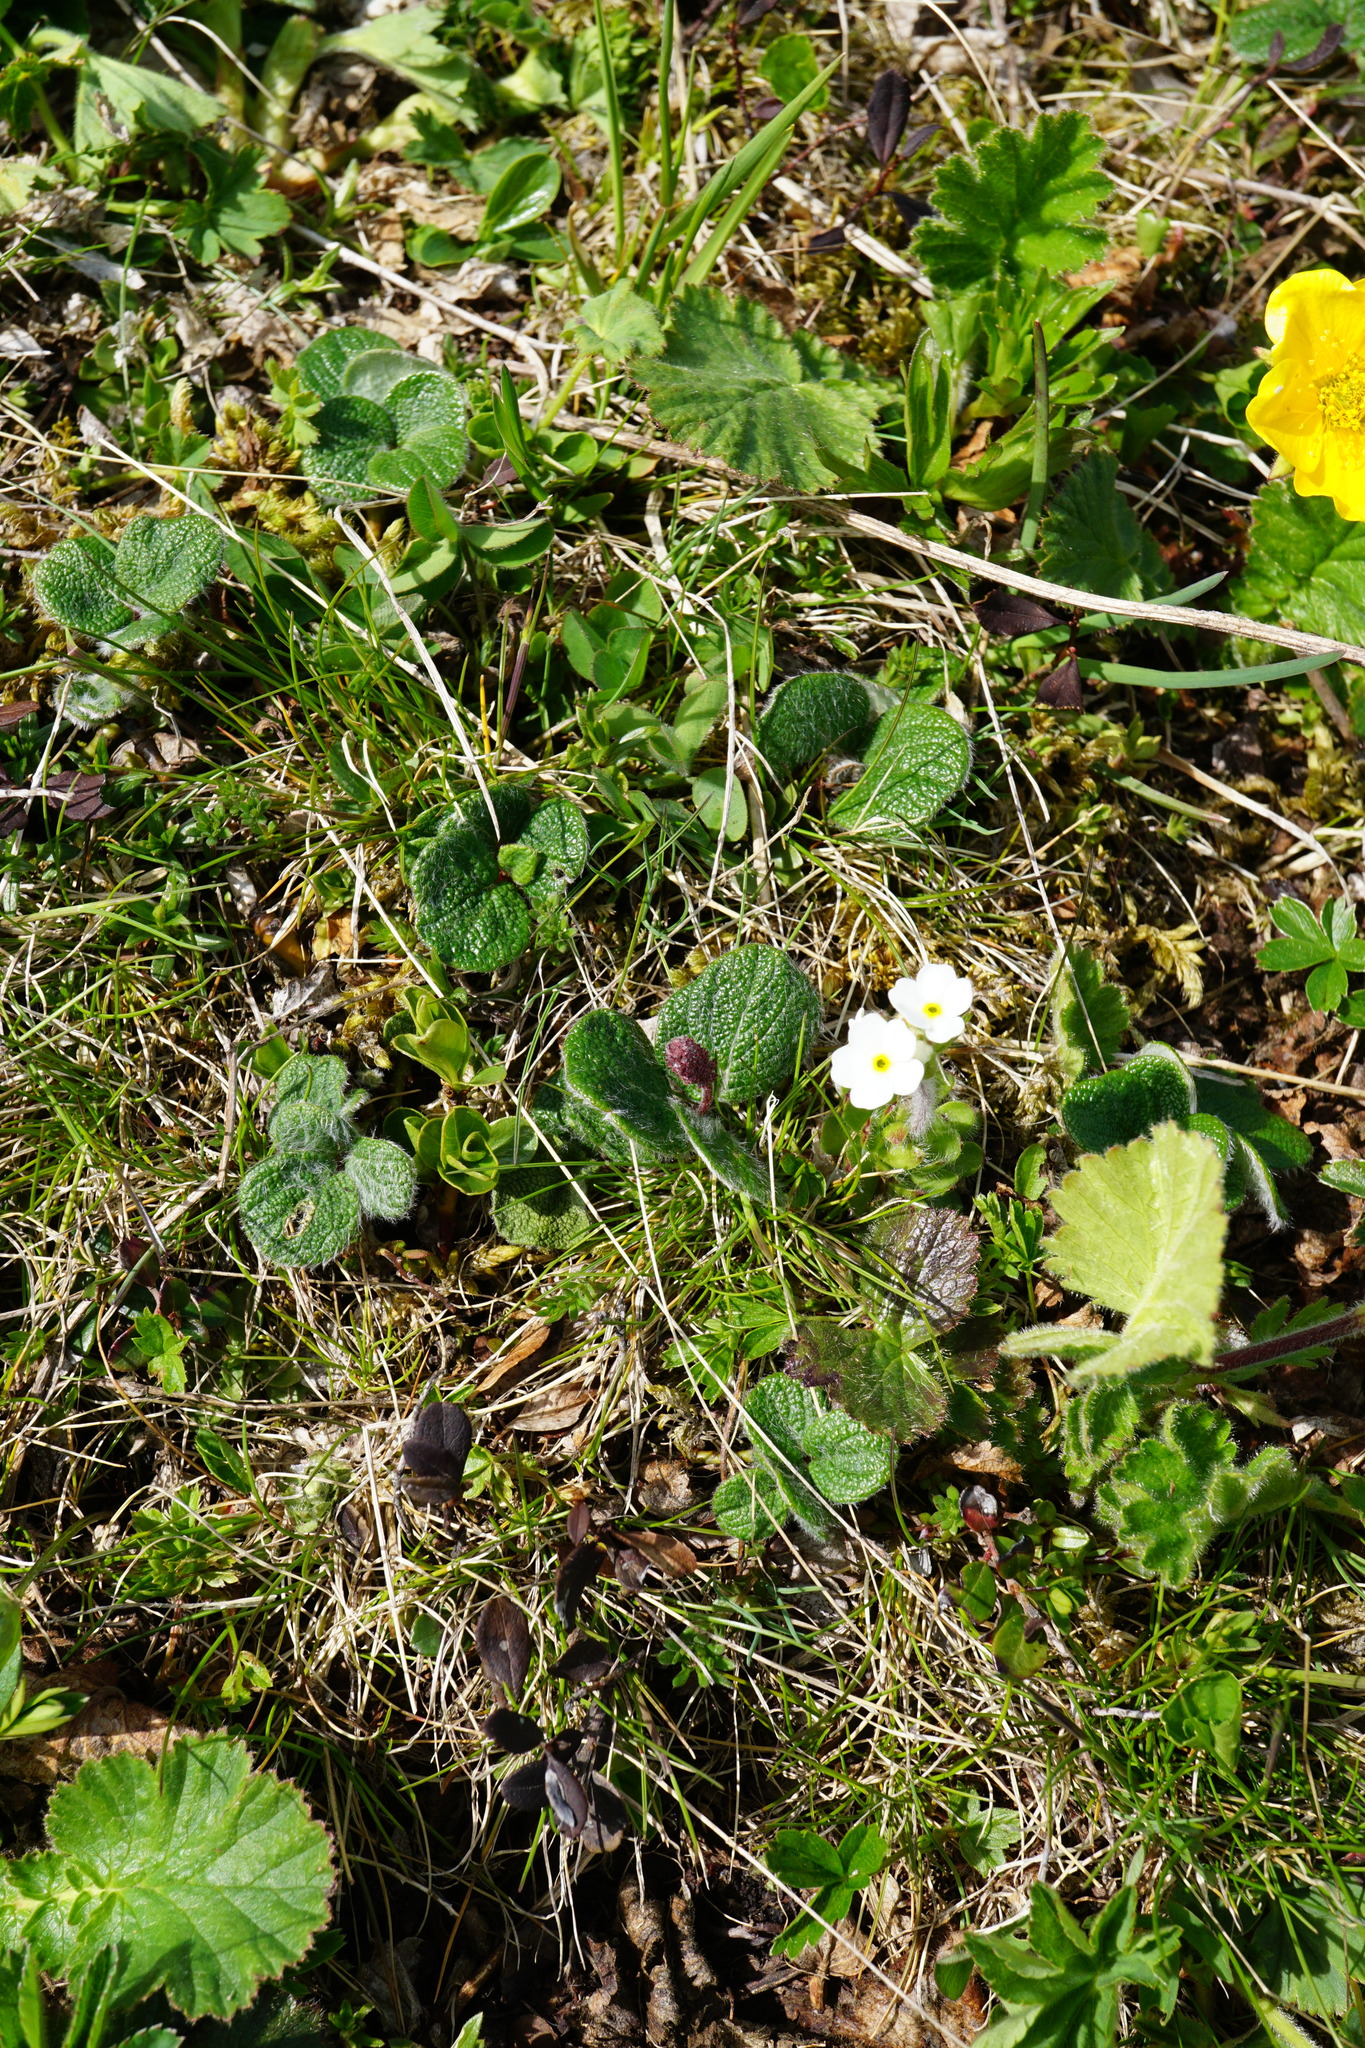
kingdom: Plantae
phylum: Tracheophyta
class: Magnoliopsida
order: Malpighiales
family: Salicaceae
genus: Salix
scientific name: Salix reticulata
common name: Net-leaved willow
